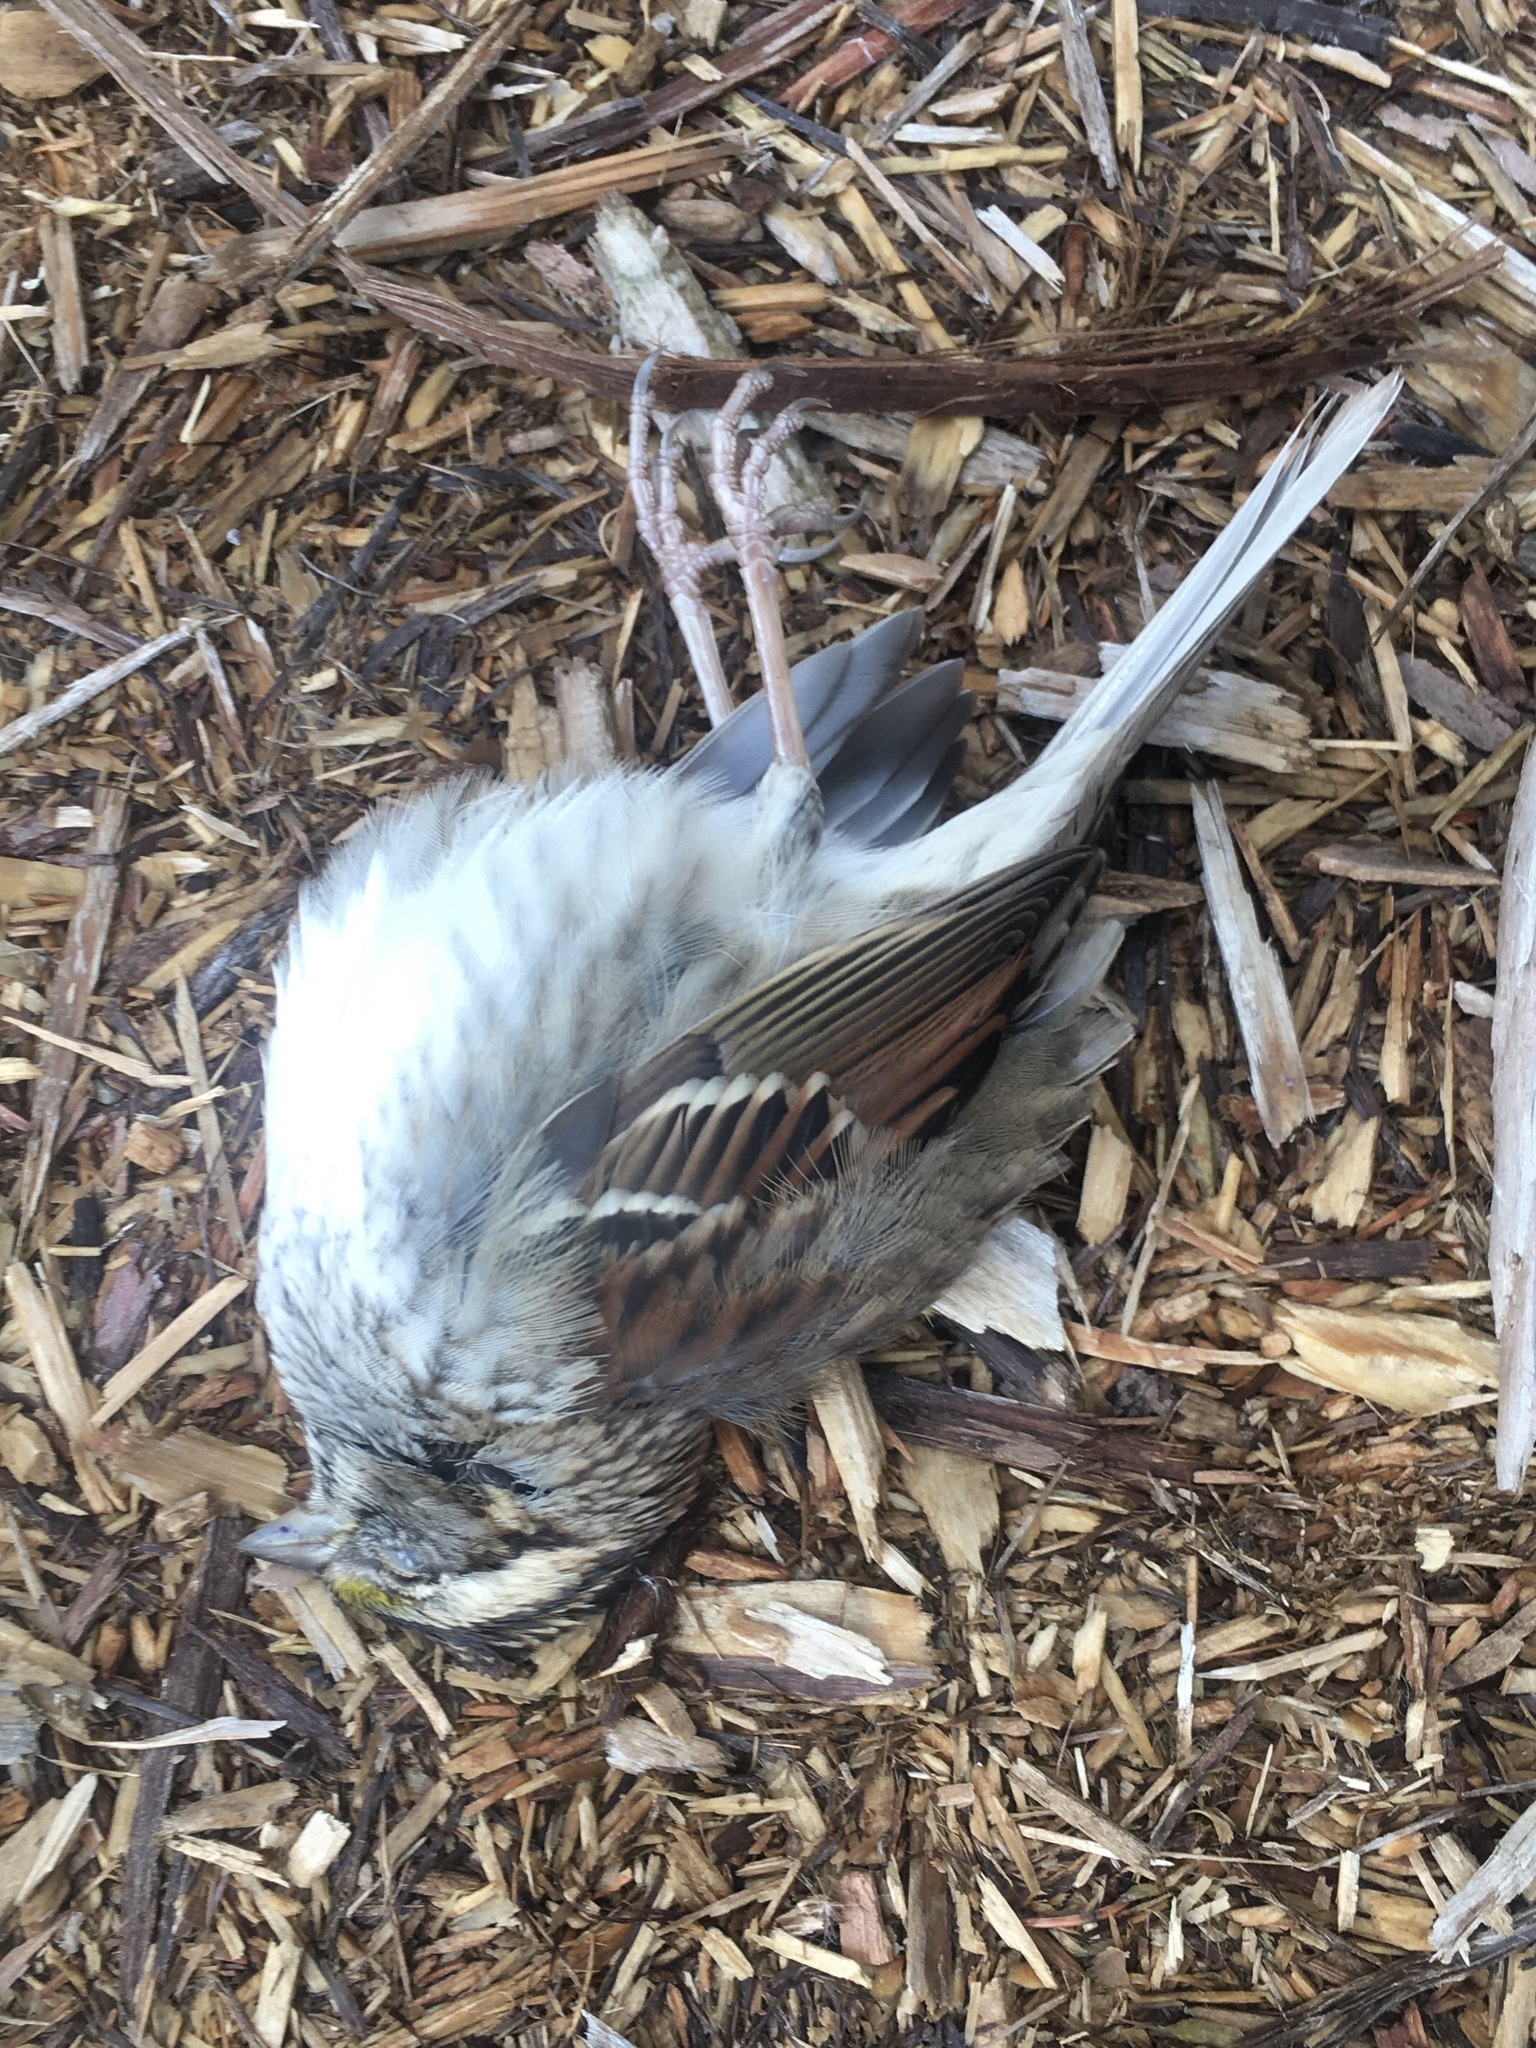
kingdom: Animalia
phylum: Chordata
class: Aves
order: Passeriformes
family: Passerellidae
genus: Zonotrichia
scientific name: Zonotrichia albicollis
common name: White-throated sparrow
